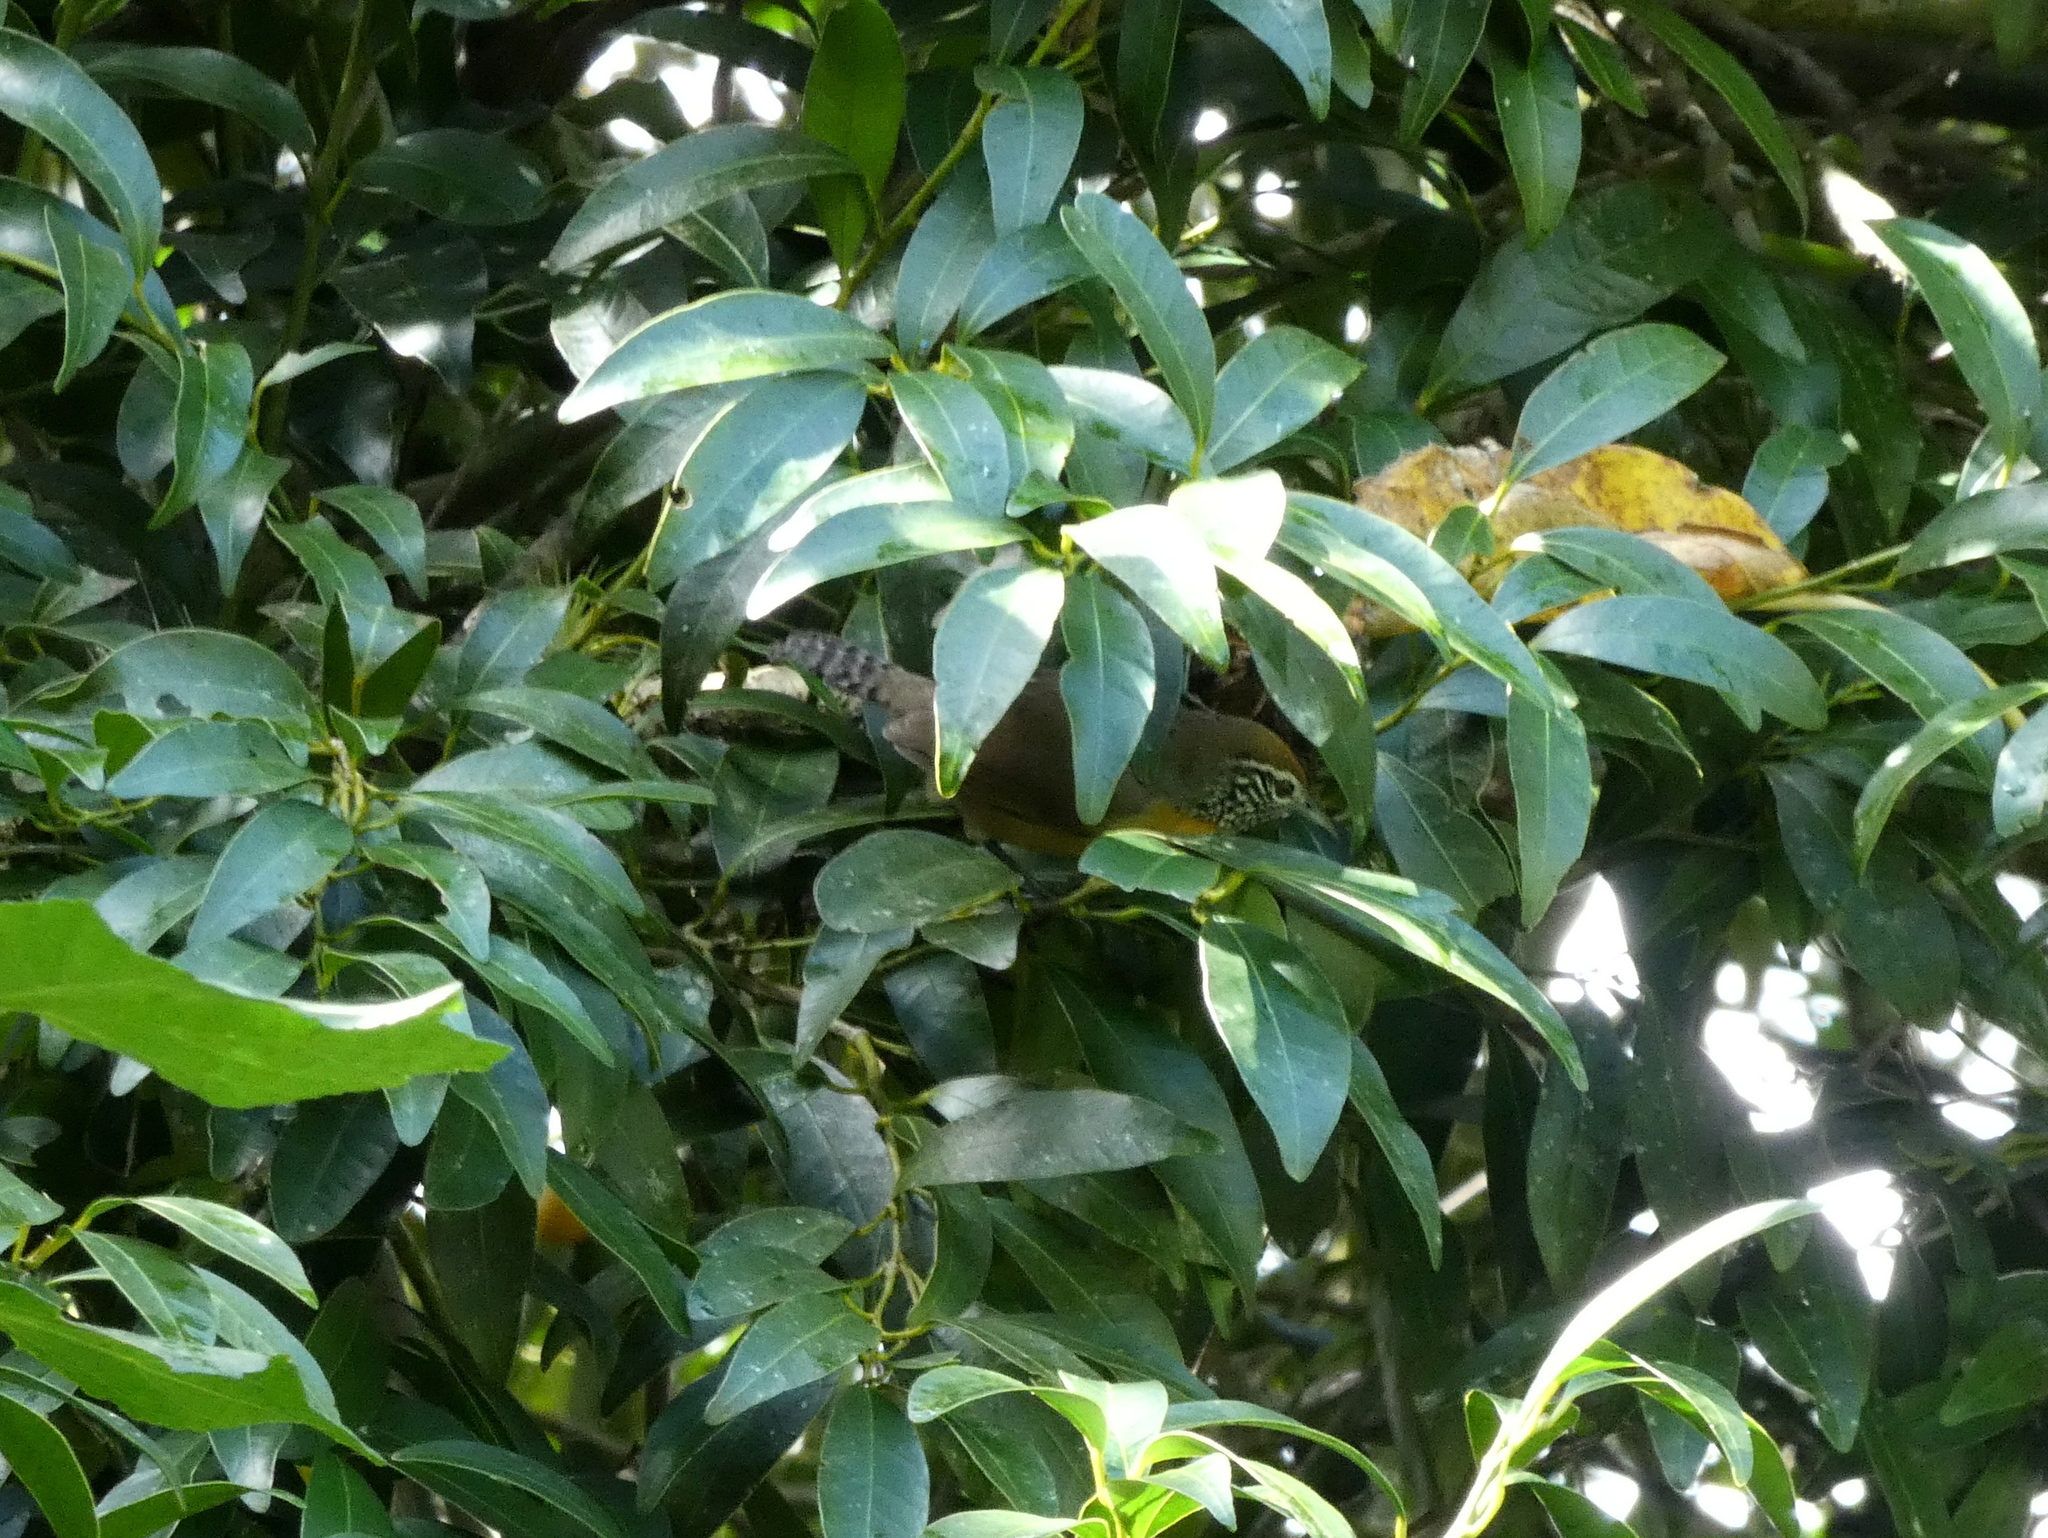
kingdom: Animalia
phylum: Chordata
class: Aves
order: Passeriformes
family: Troglodytidae
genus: Pheugopedius
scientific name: Pheugopedius rutilus
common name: Rufous-breasted wren
